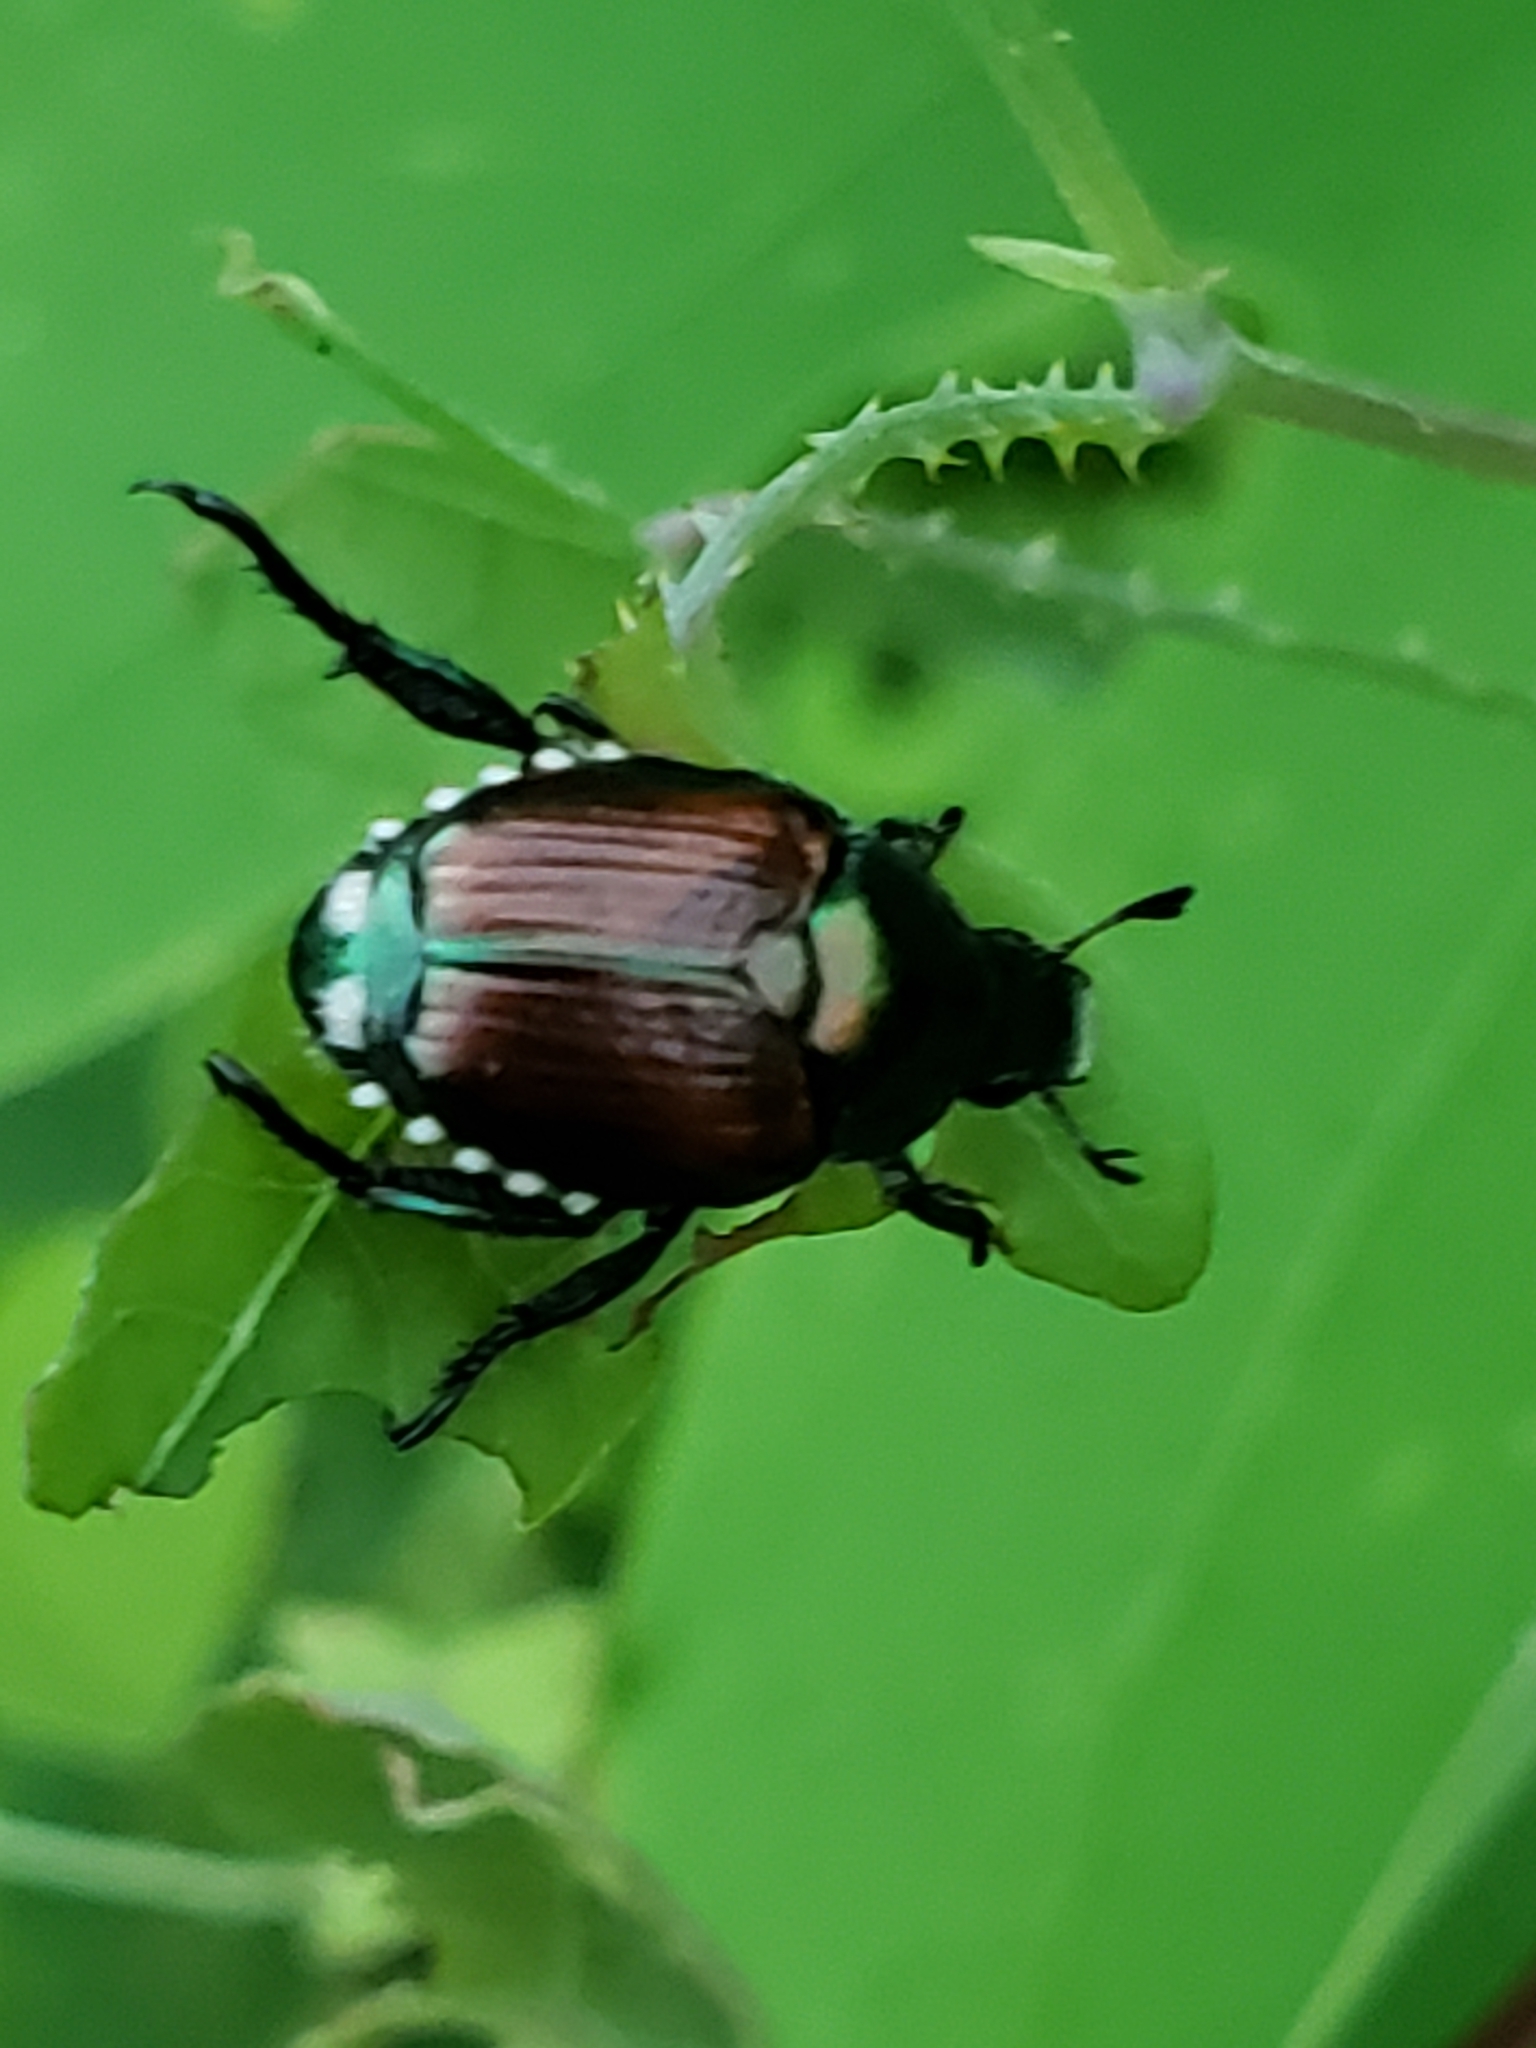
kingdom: Animalia
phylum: Arthropoda
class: Insecta
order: Coleoptera
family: Scarabaeidae
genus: Popillia
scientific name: Popillia japonica
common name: Japanese beetle
